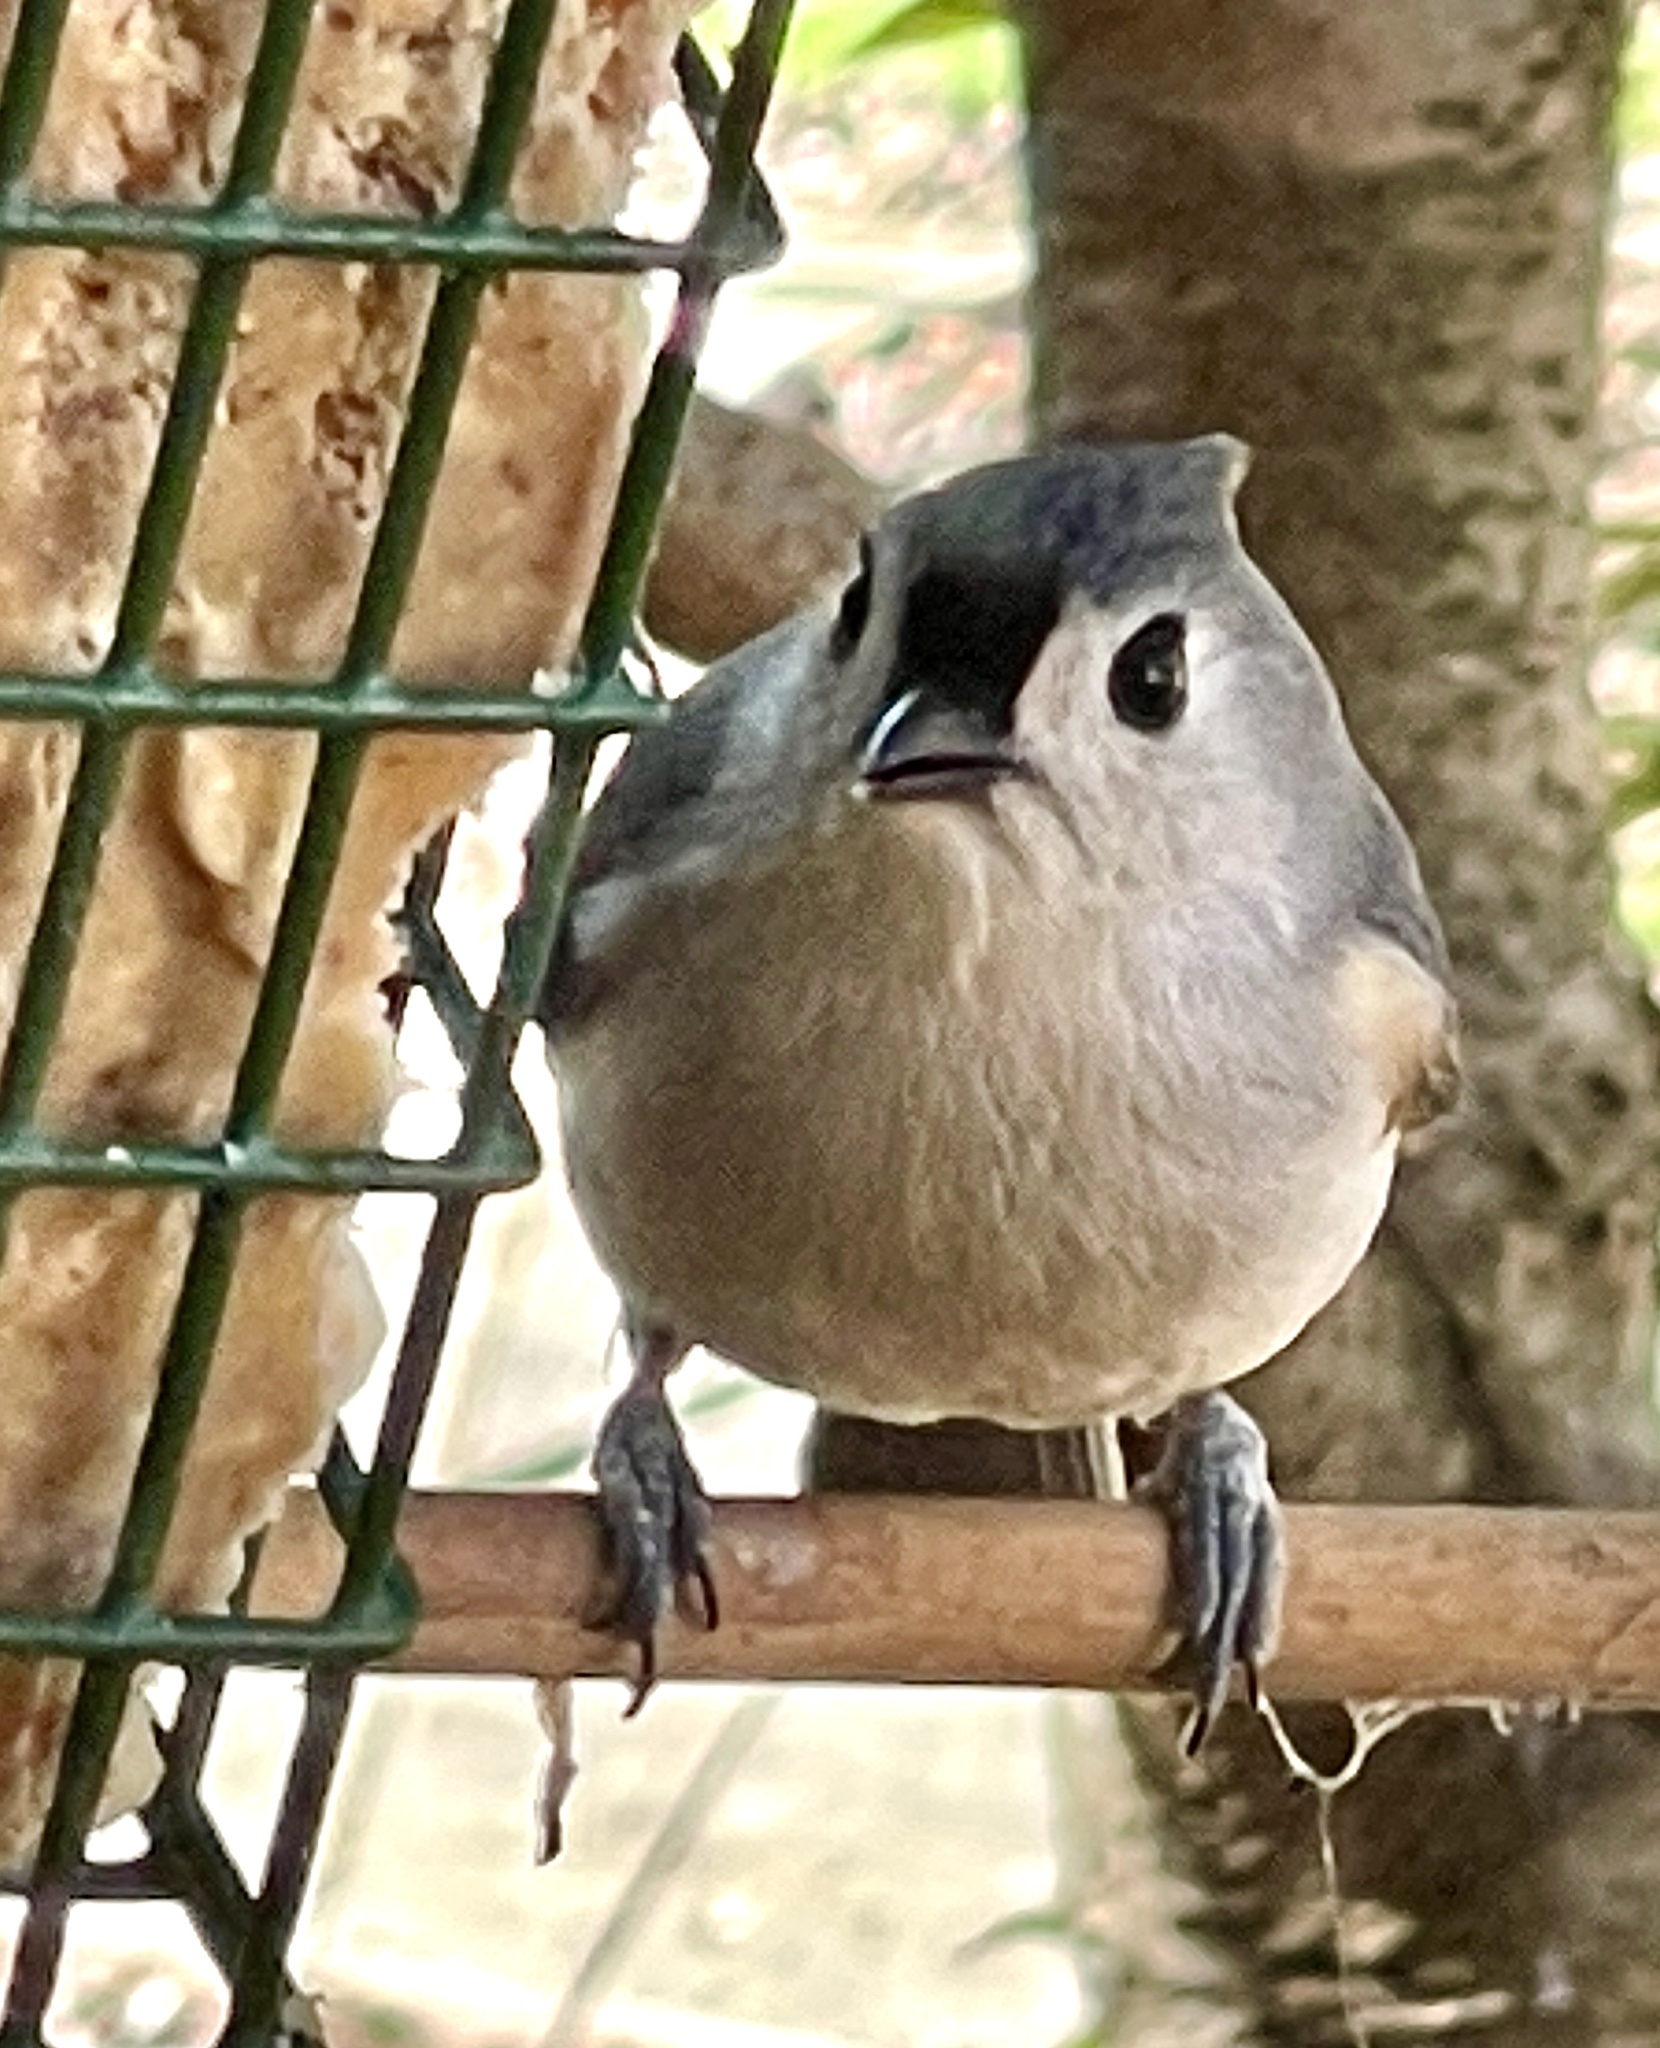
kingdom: Animalia
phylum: Chordata
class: Aves
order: Passeriformes
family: Paridae
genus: Baeolophus
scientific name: Baeolophus bicolor
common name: Tufted titmouse
